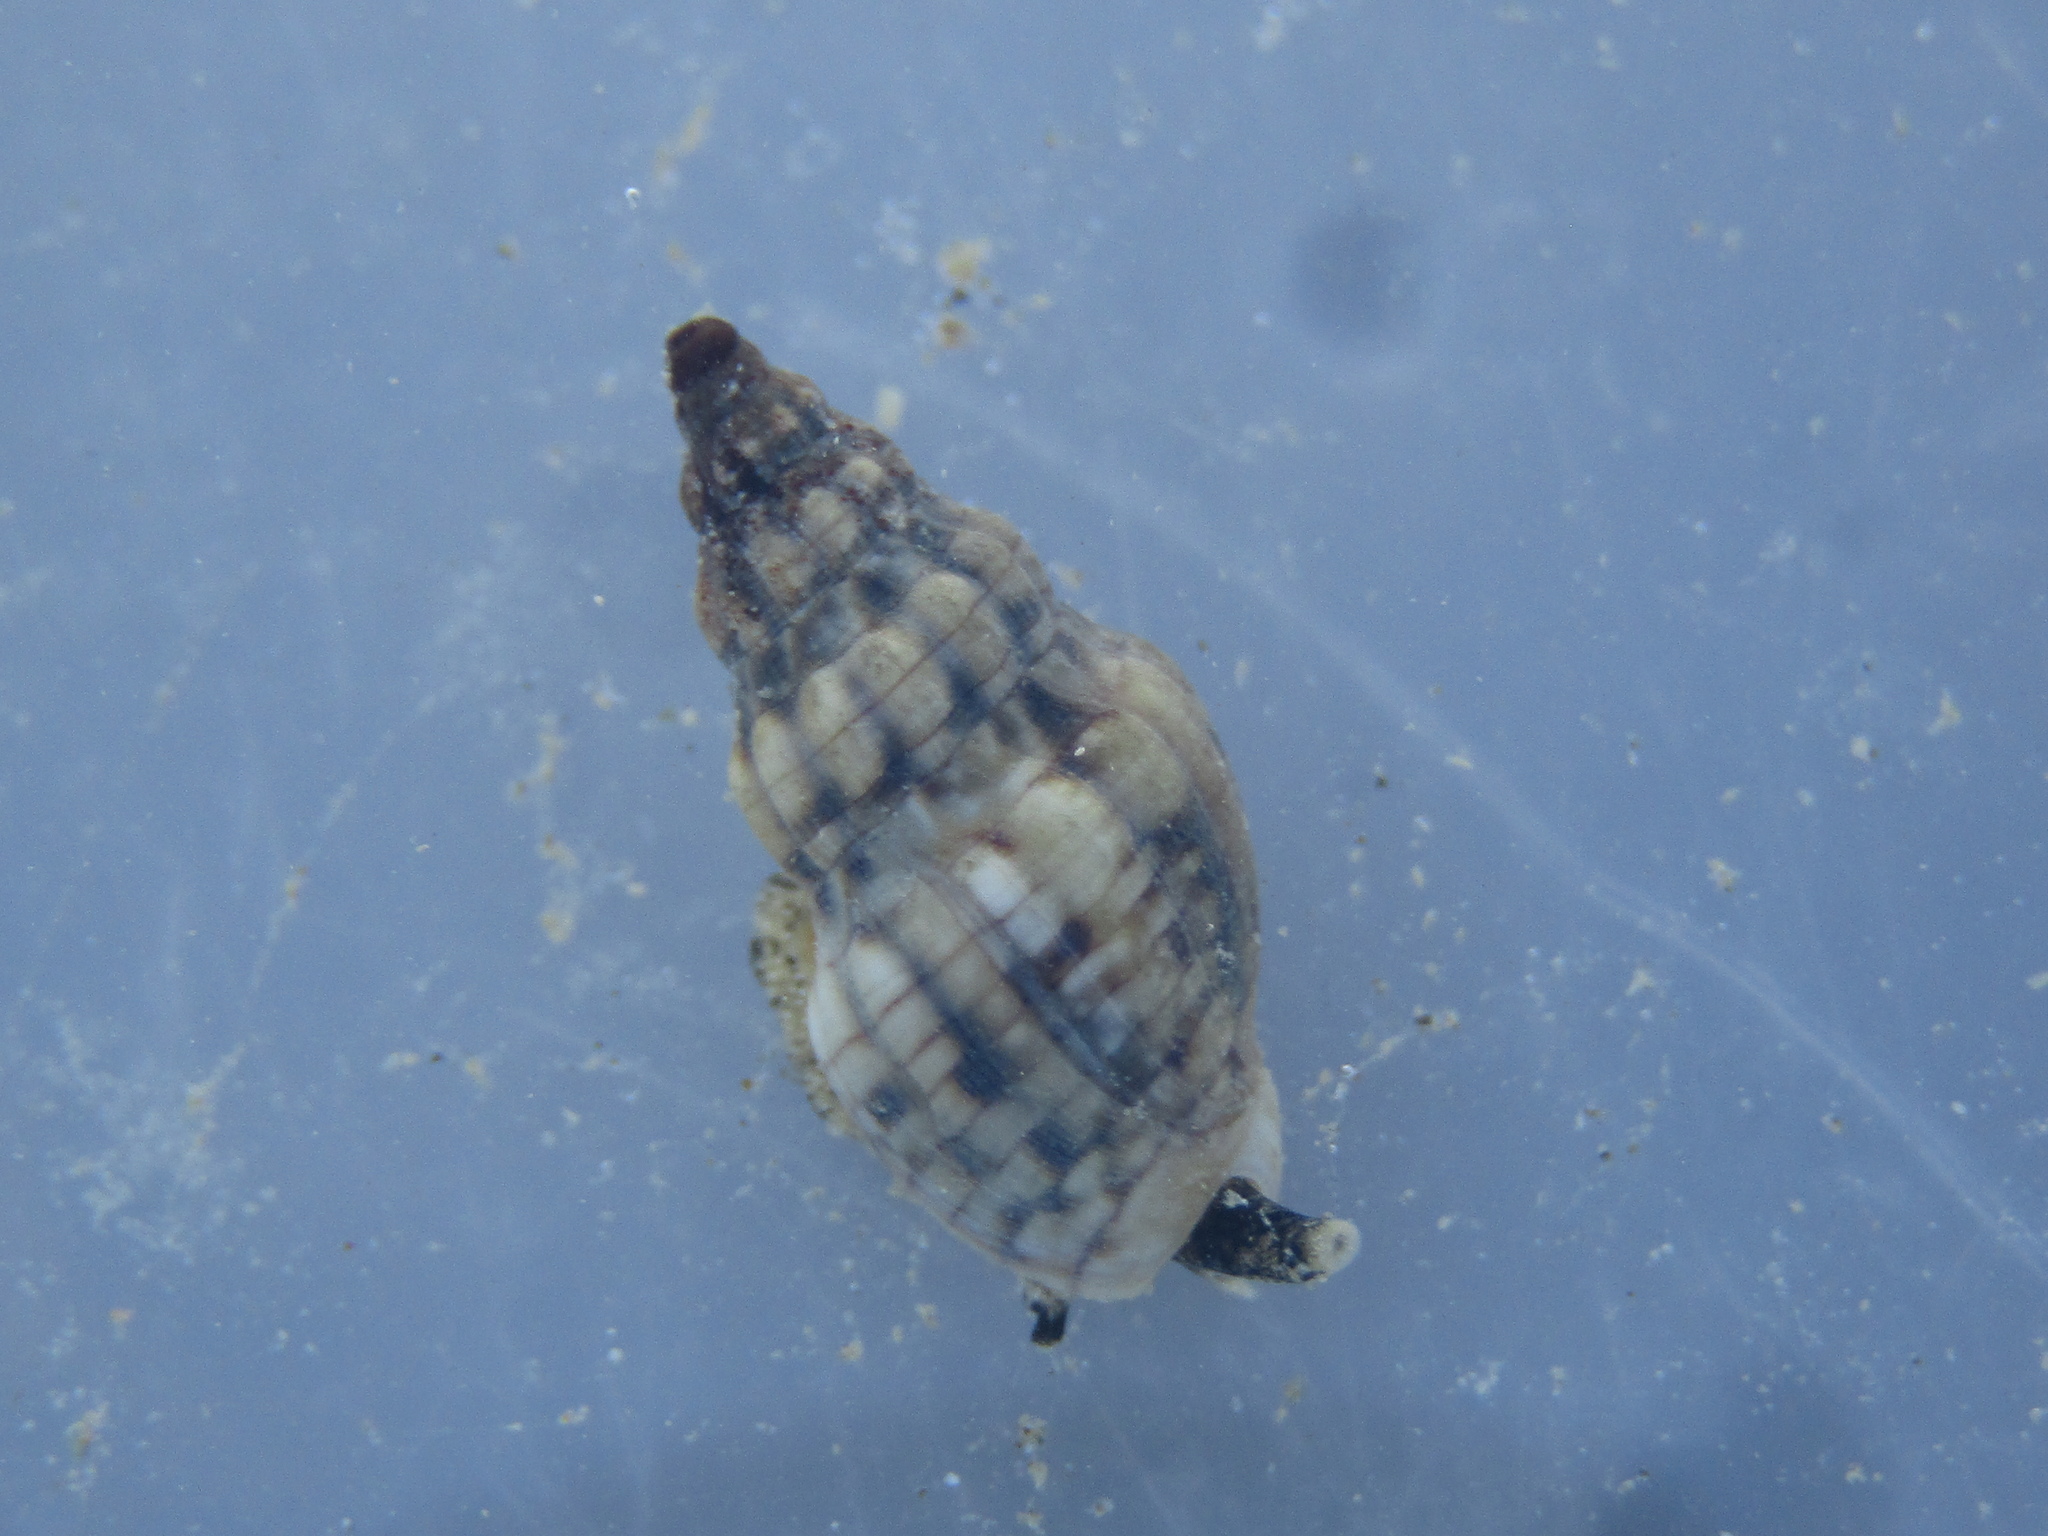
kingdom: Animalia
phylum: Mollusca
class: Gastropoda
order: Neogastropoda
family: Cominellidae
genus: Cominella
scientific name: Cominella quoyana
